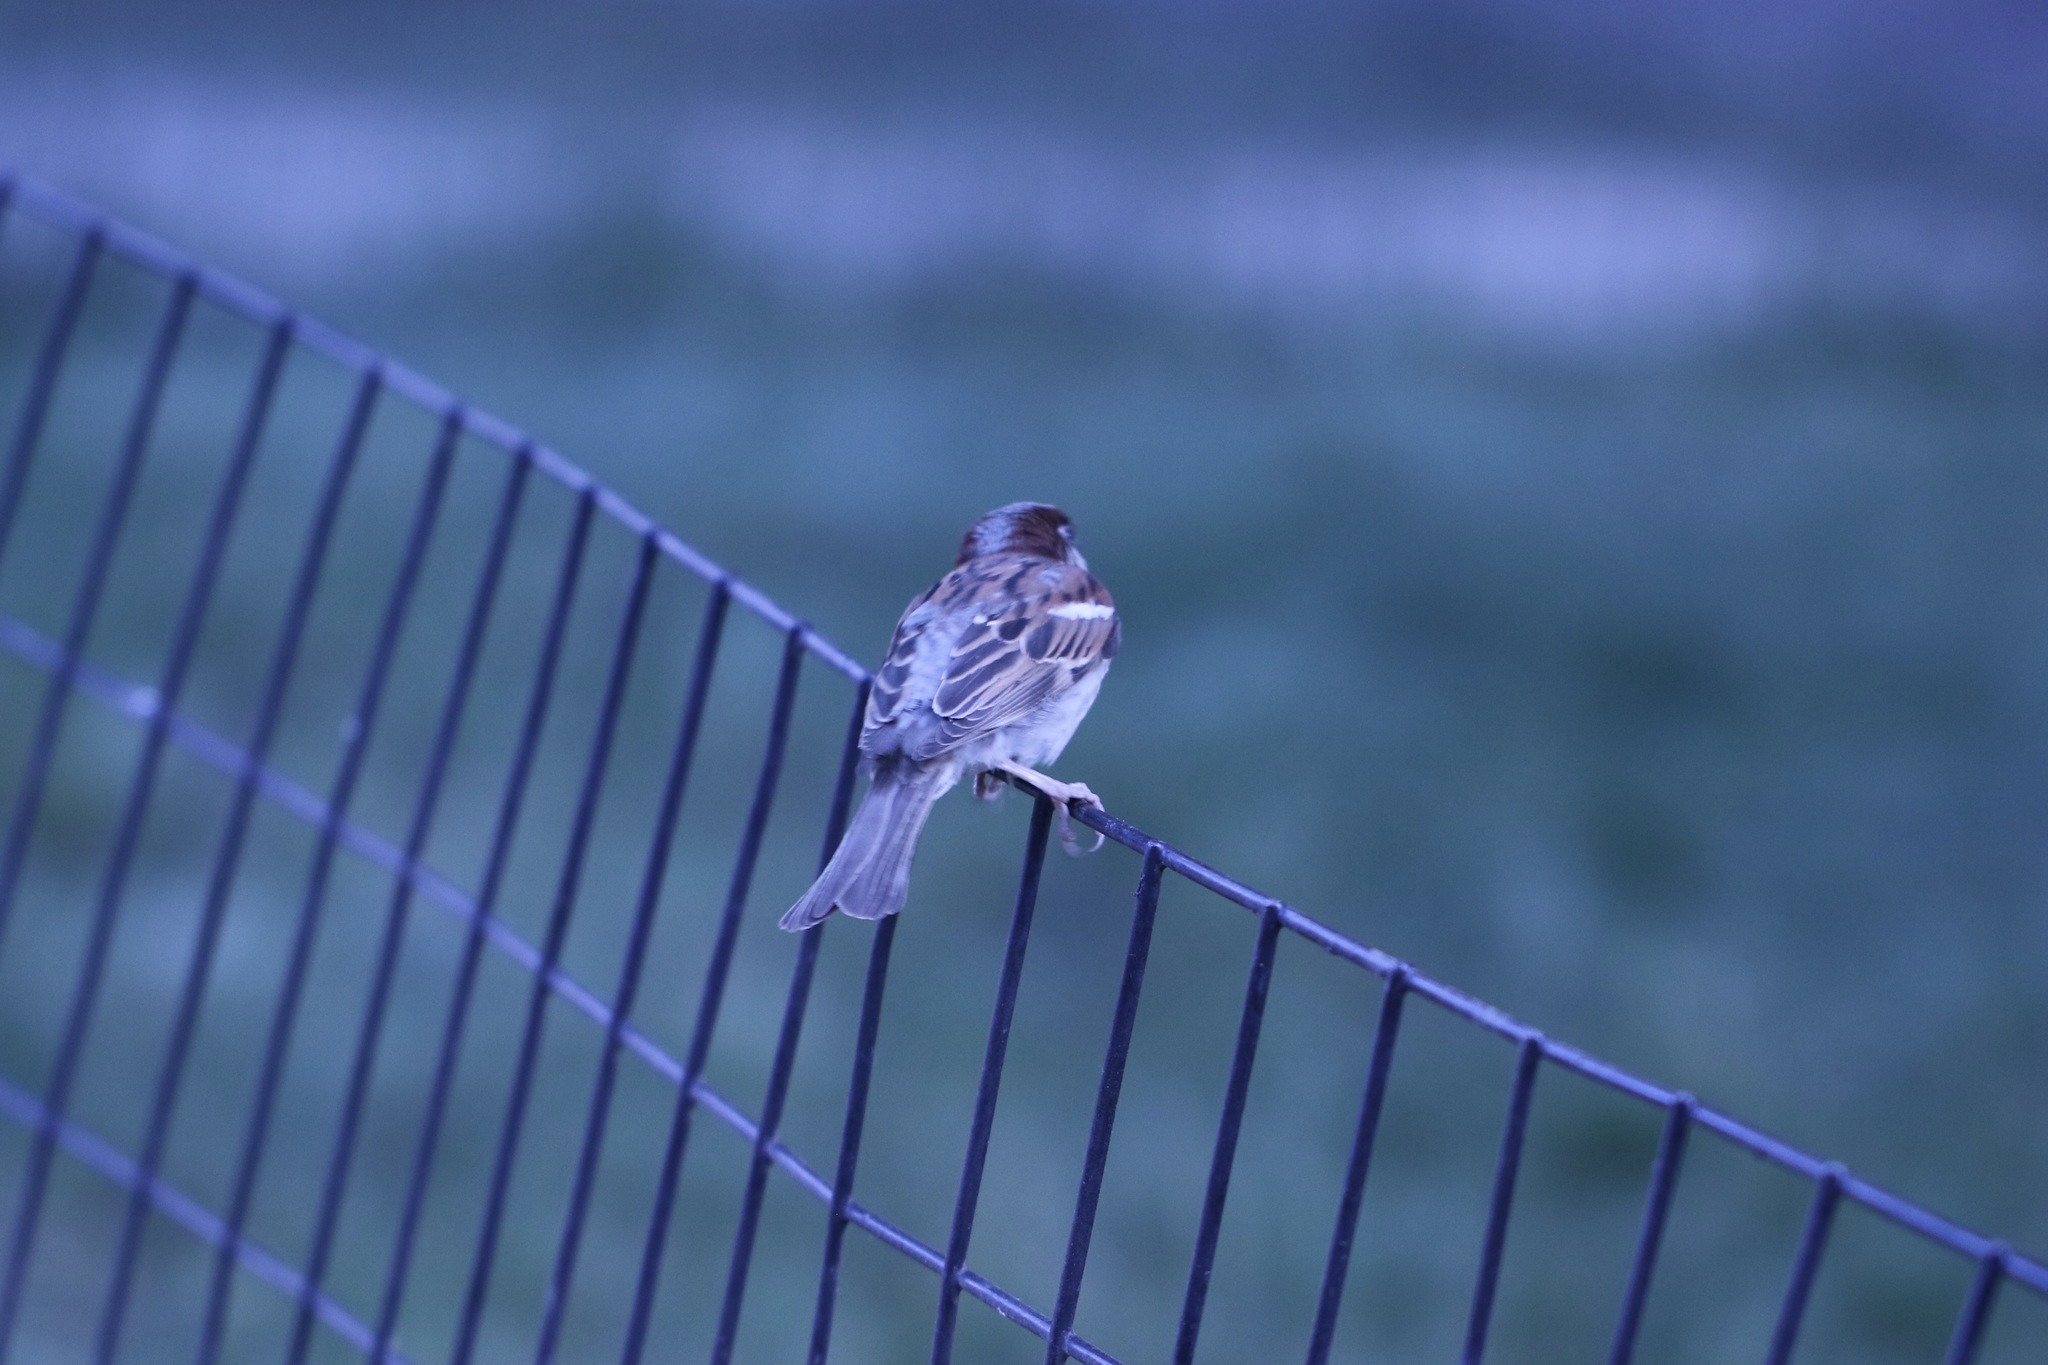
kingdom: Animalia
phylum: Chordata
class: Aves
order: Passeriformes
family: Passeridae
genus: Passer
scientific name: Passer domesticus
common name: House sparrow
